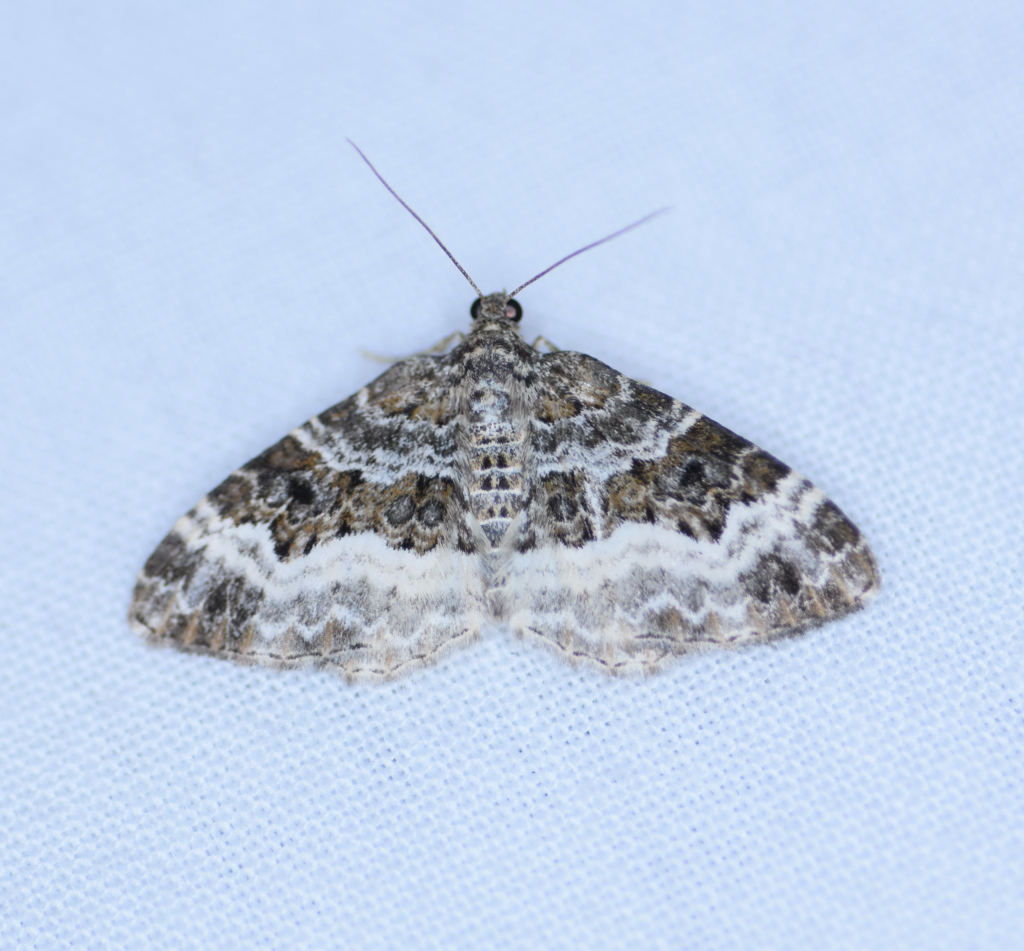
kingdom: Animalia
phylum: Arthropoda
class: Insecta
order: Lepidoptera
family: Geometridae
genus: Epirrhoe
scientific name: Epirrhoe alternata
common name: Common carpet
